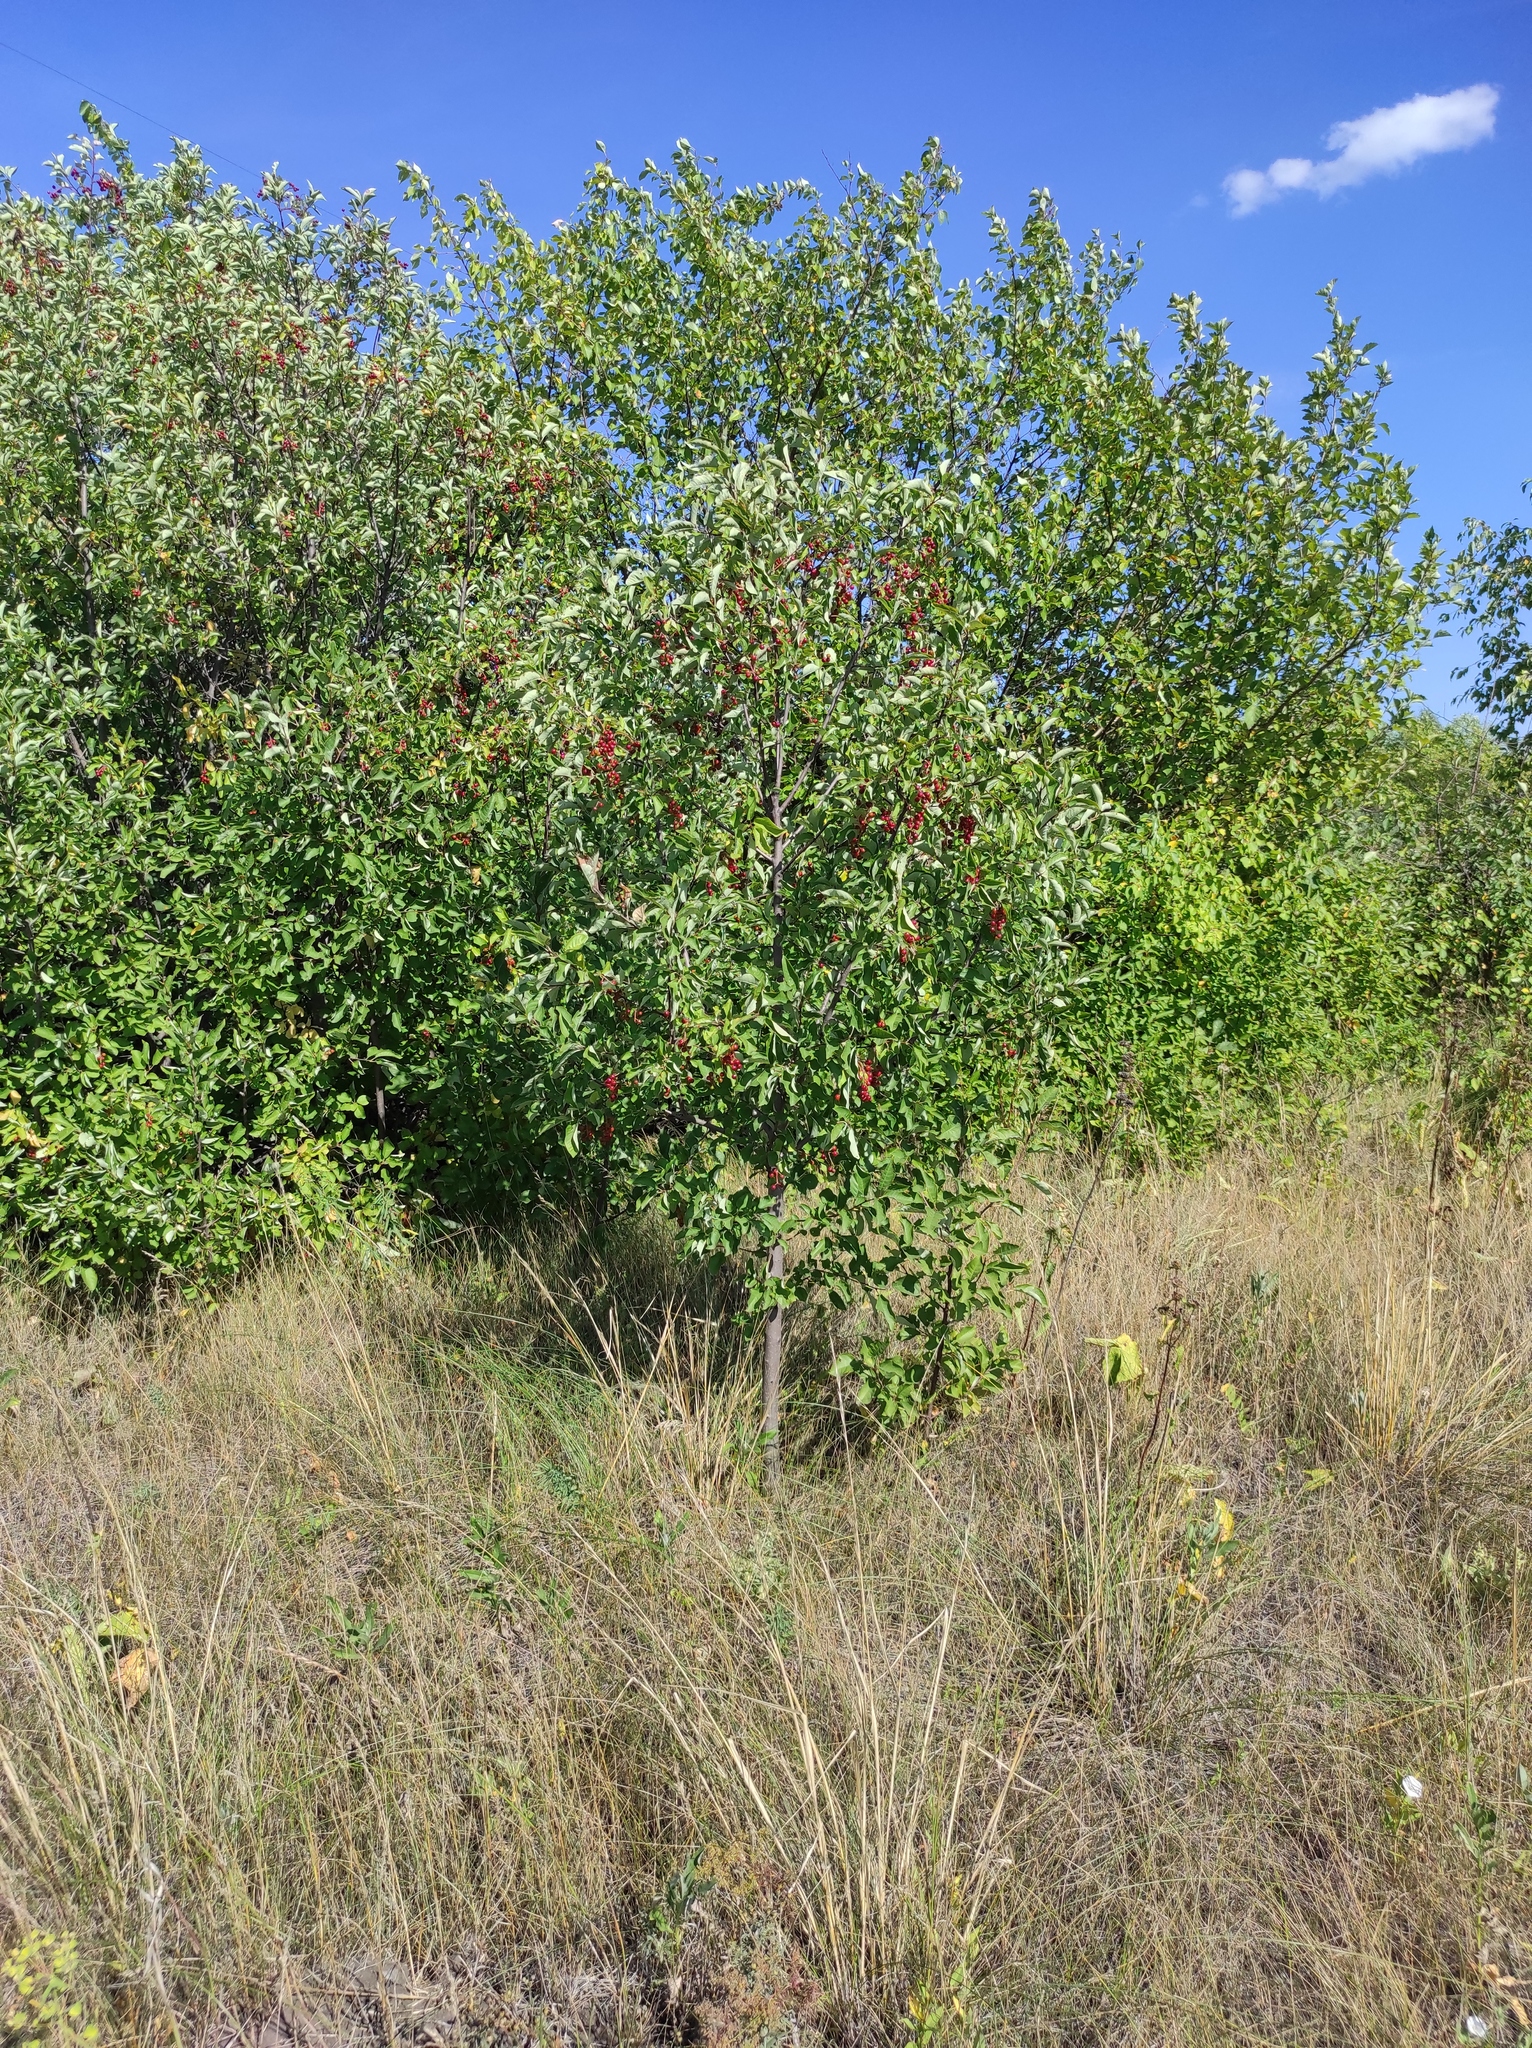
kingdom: Plantae
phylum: Tracheophyta
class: Magnoliopsida
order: Rosales
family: Rosaceae
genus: Prunus
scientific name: Prunus virginiana
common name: Chokecherry
